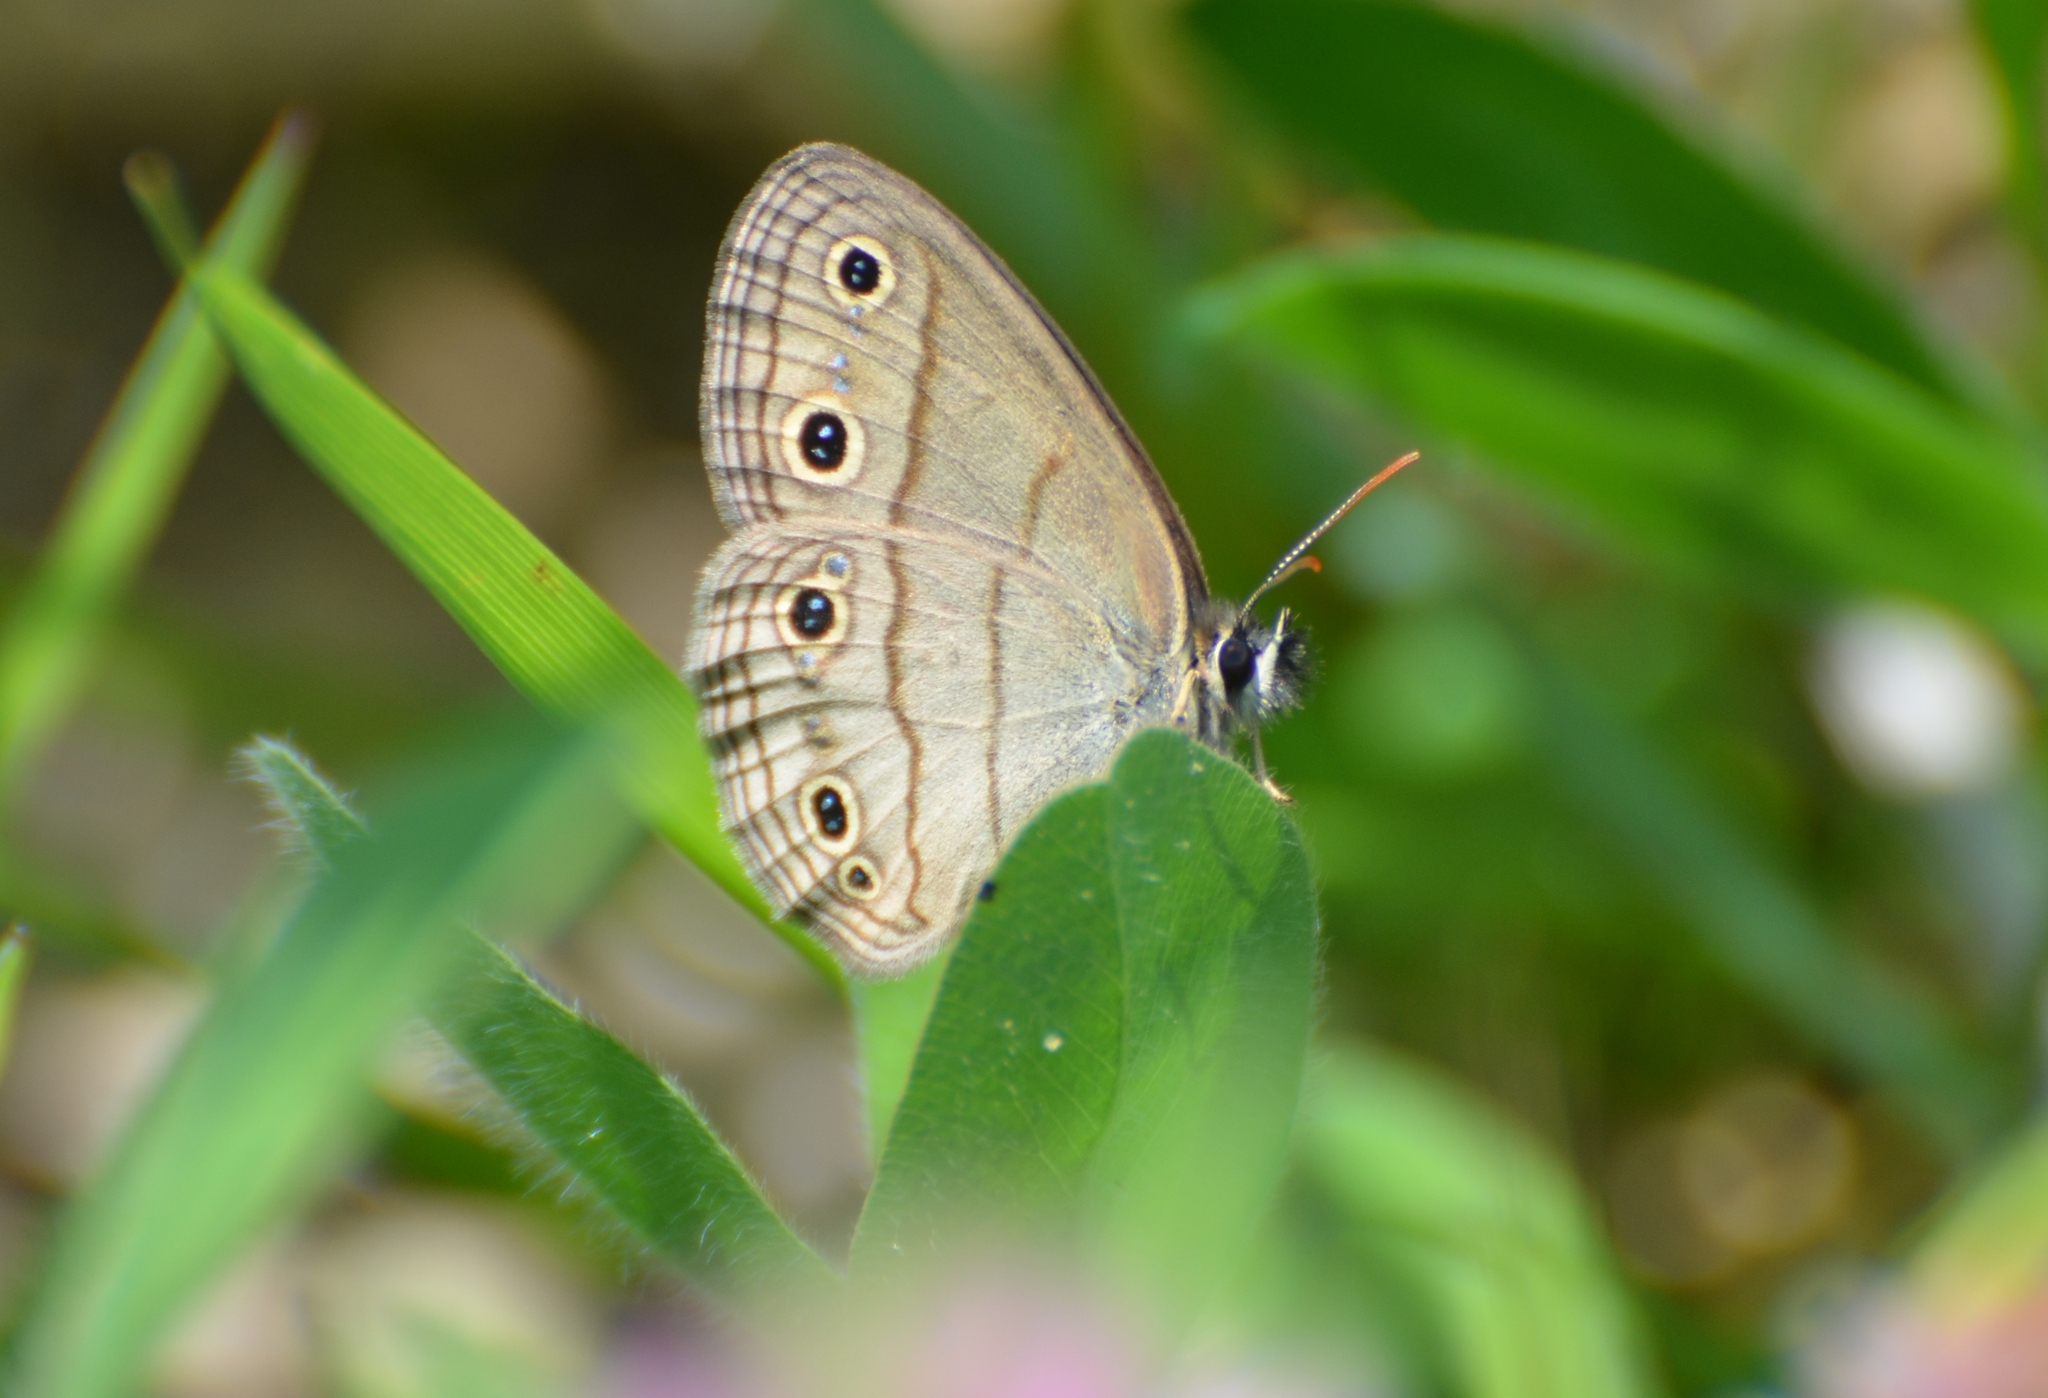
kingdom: Animalia
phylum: Arthropoda
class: Insecta
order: Lepidoptera
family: Nymphalidae
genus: Euptychia
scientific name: Euptychia cymela
